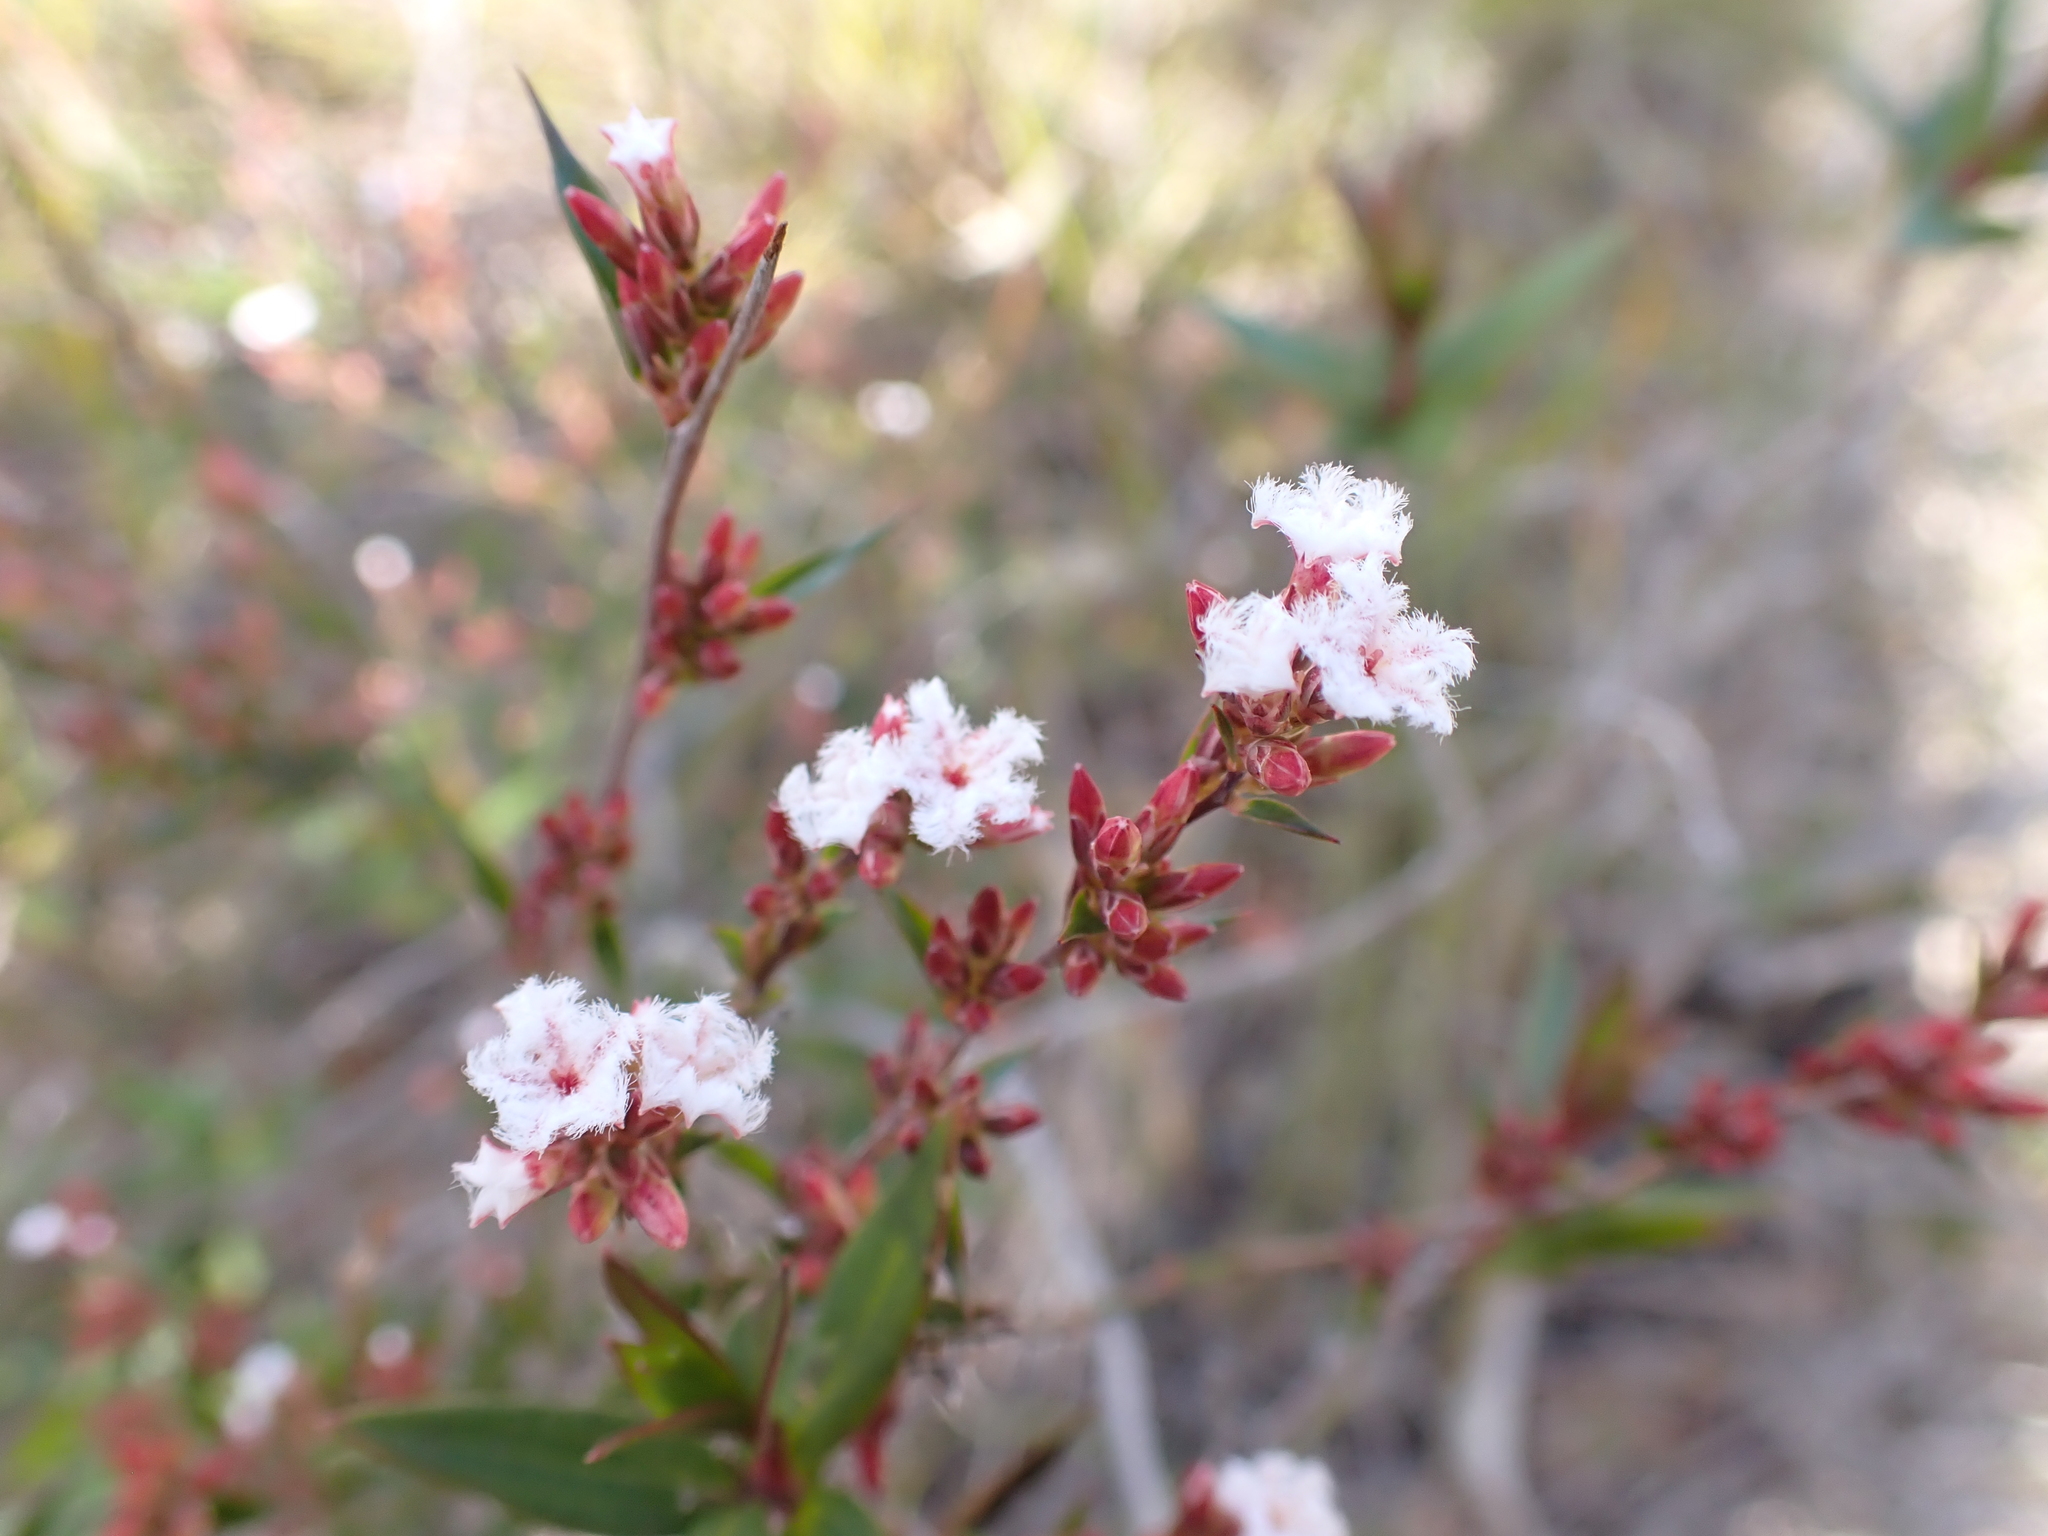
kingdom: Plantae
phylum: Tracheophyta
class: Magnoliopsida
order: Ericales
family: Ericaceae
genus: Leucopogon
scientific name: Leucopogon virgatus
